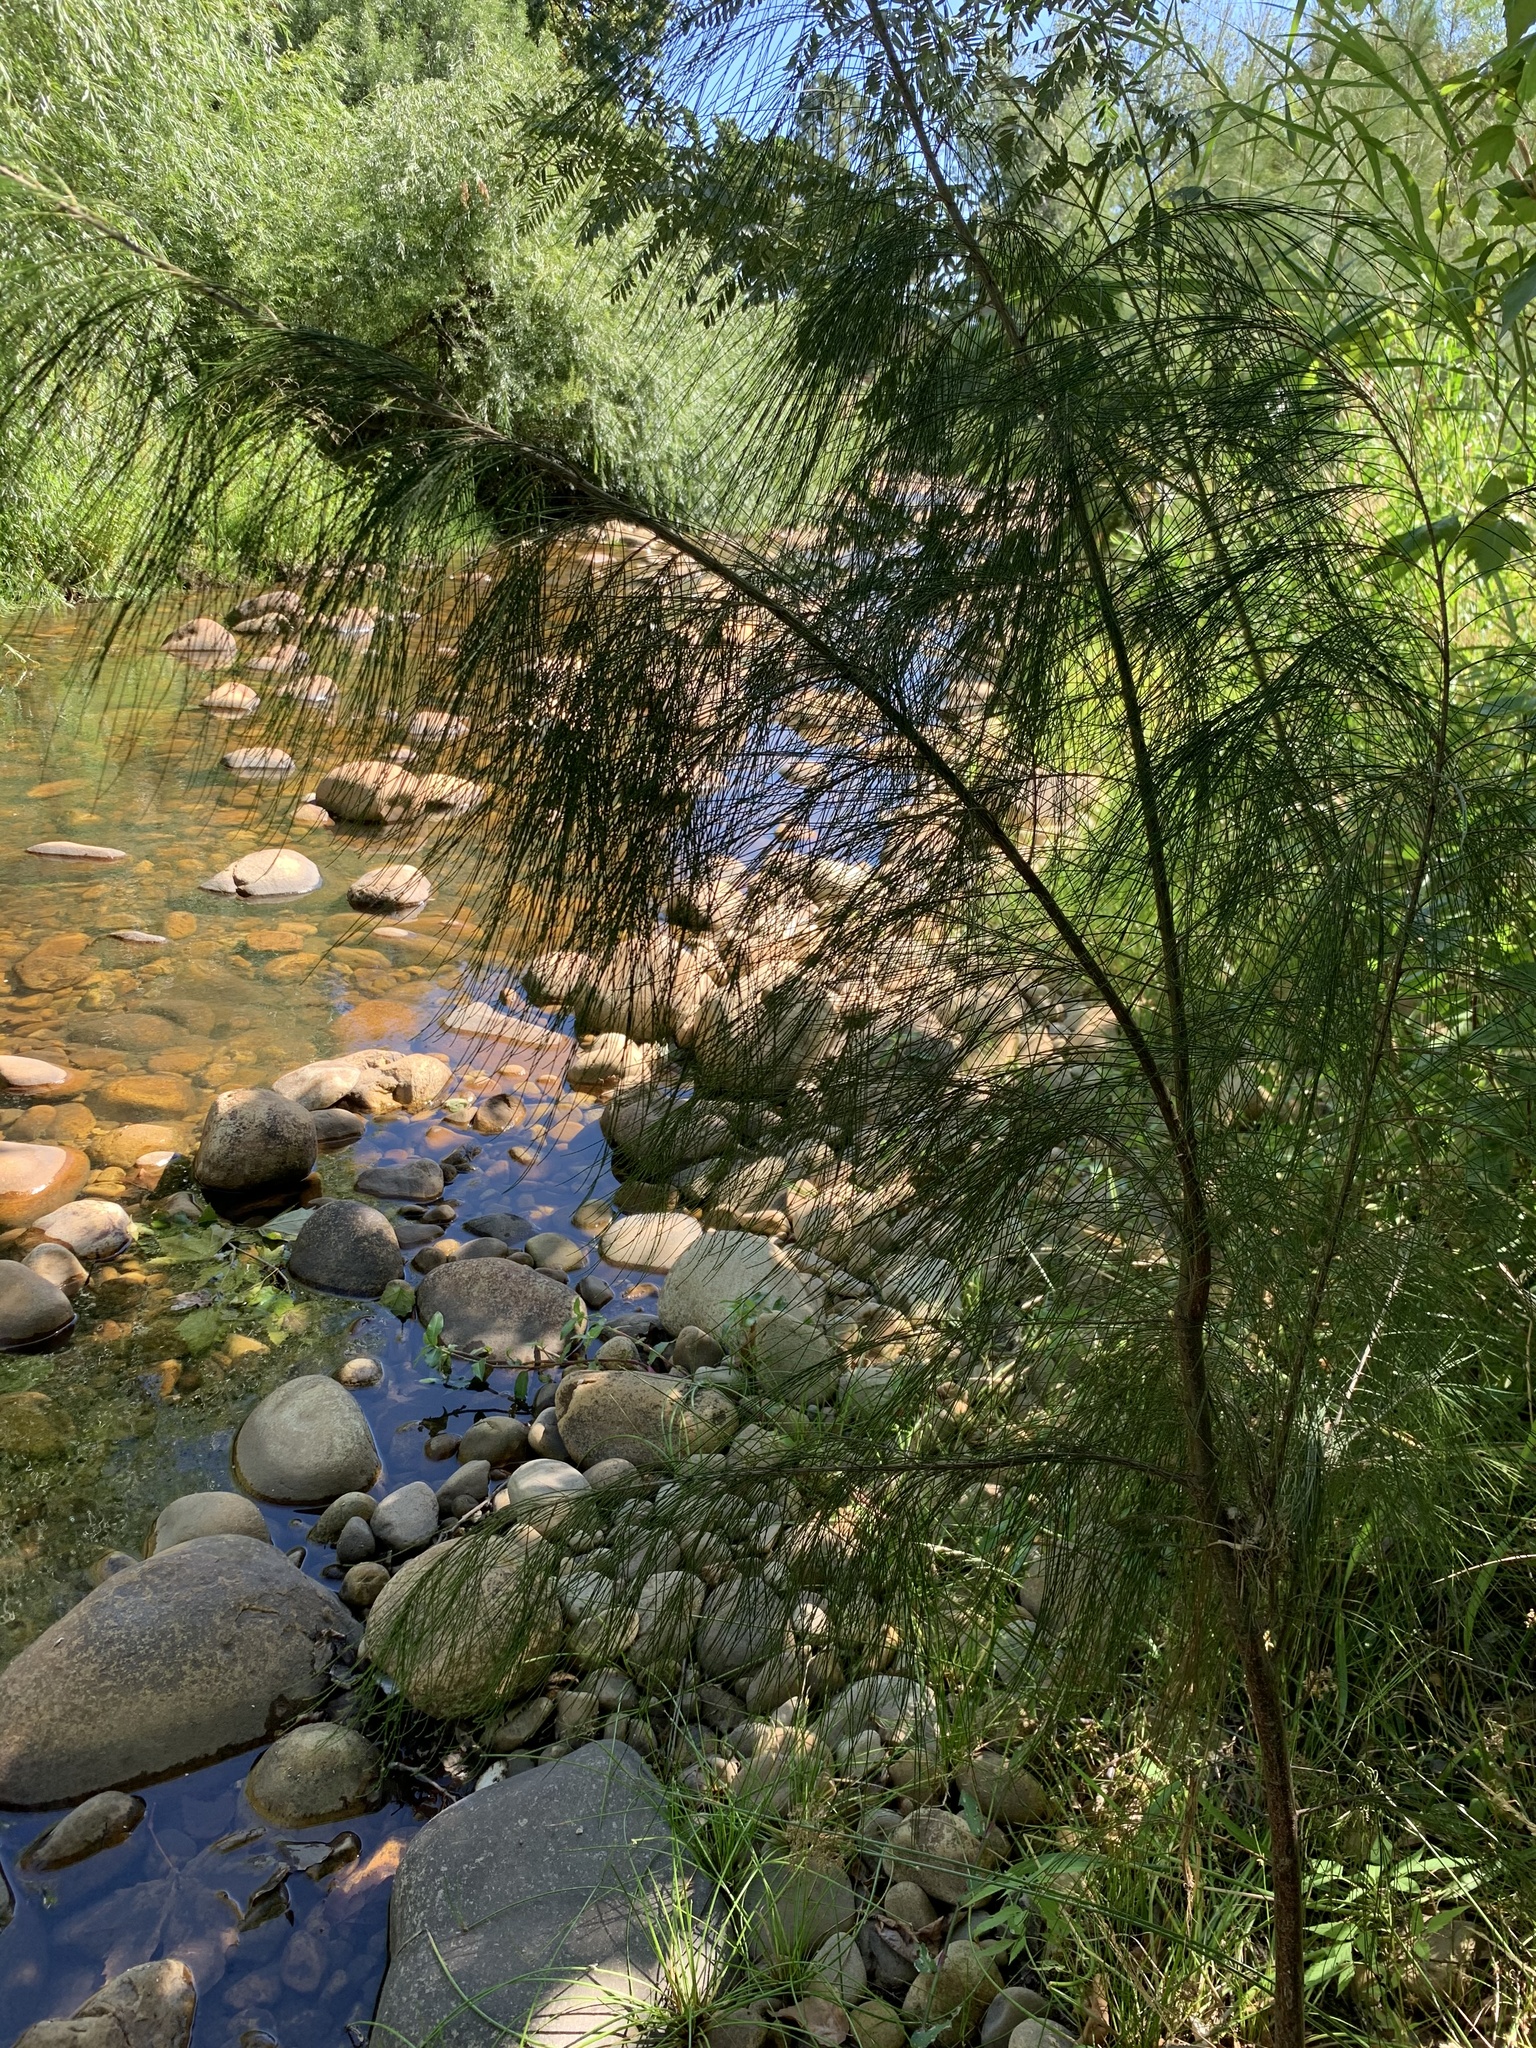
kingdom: Plantae
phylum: Tracheophyta
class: Magnoliopsida
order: Fagales
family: Casuarinaceae
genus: Casuarina
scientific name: Casuarina cunninghamiana
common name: River sheoak
